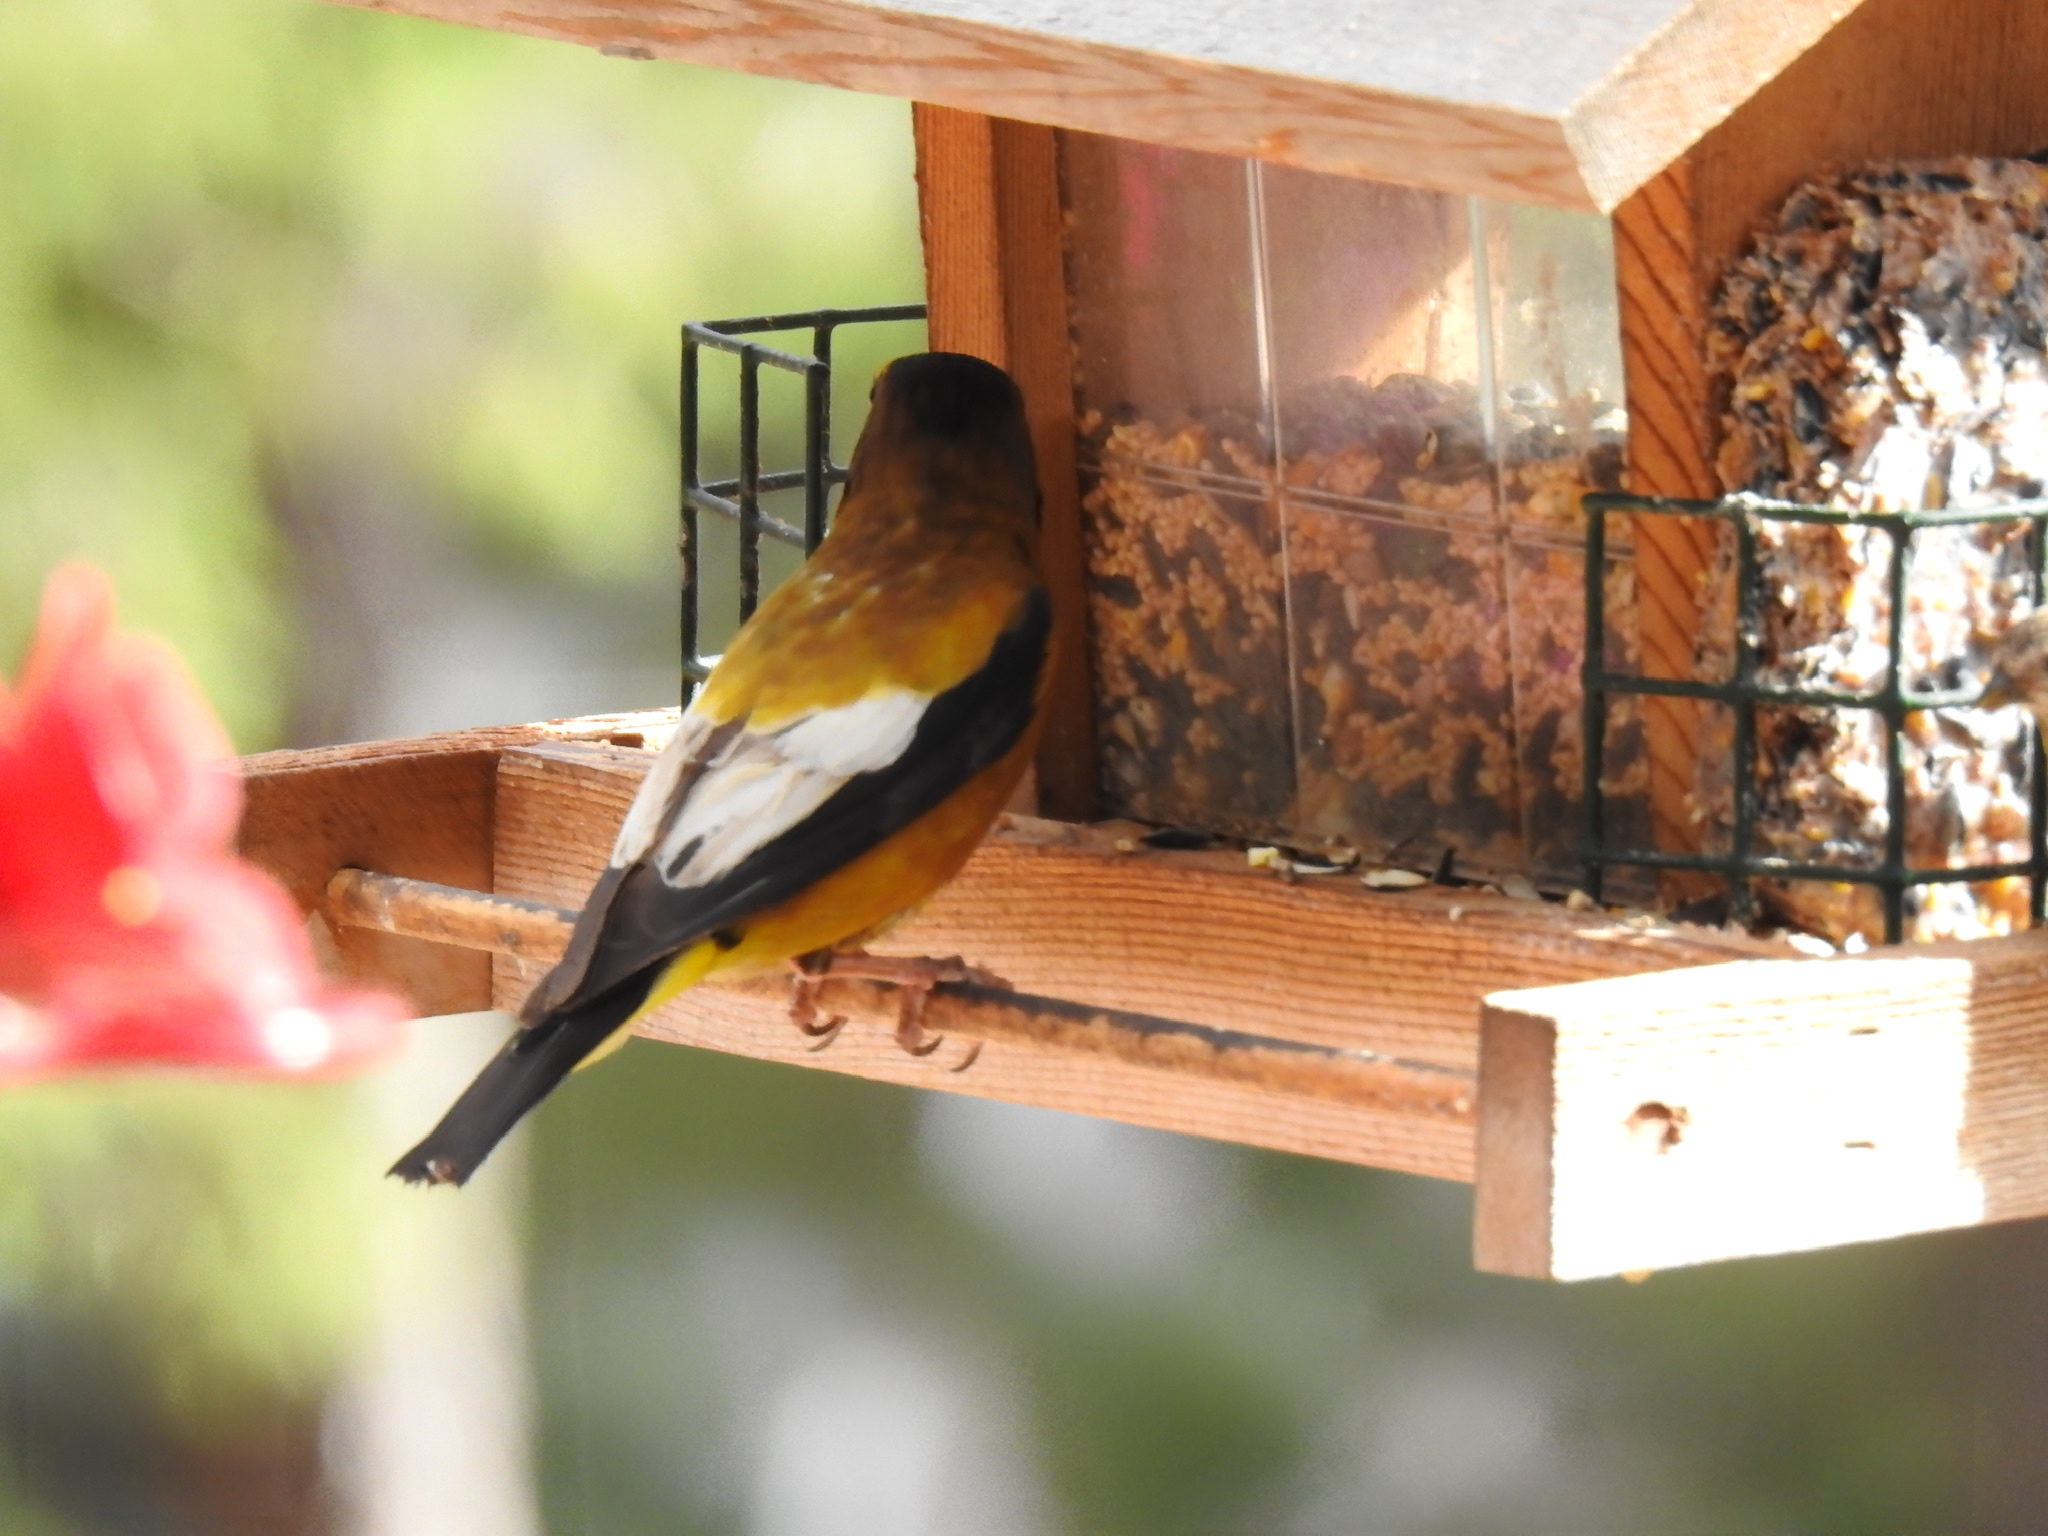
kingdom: Animalia
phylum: Chordata
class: Aves
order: Passeriformes
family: Fringillidae
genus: Hesperiphona
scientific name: Hesperiphona vespertina
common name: Evening grosbeak
